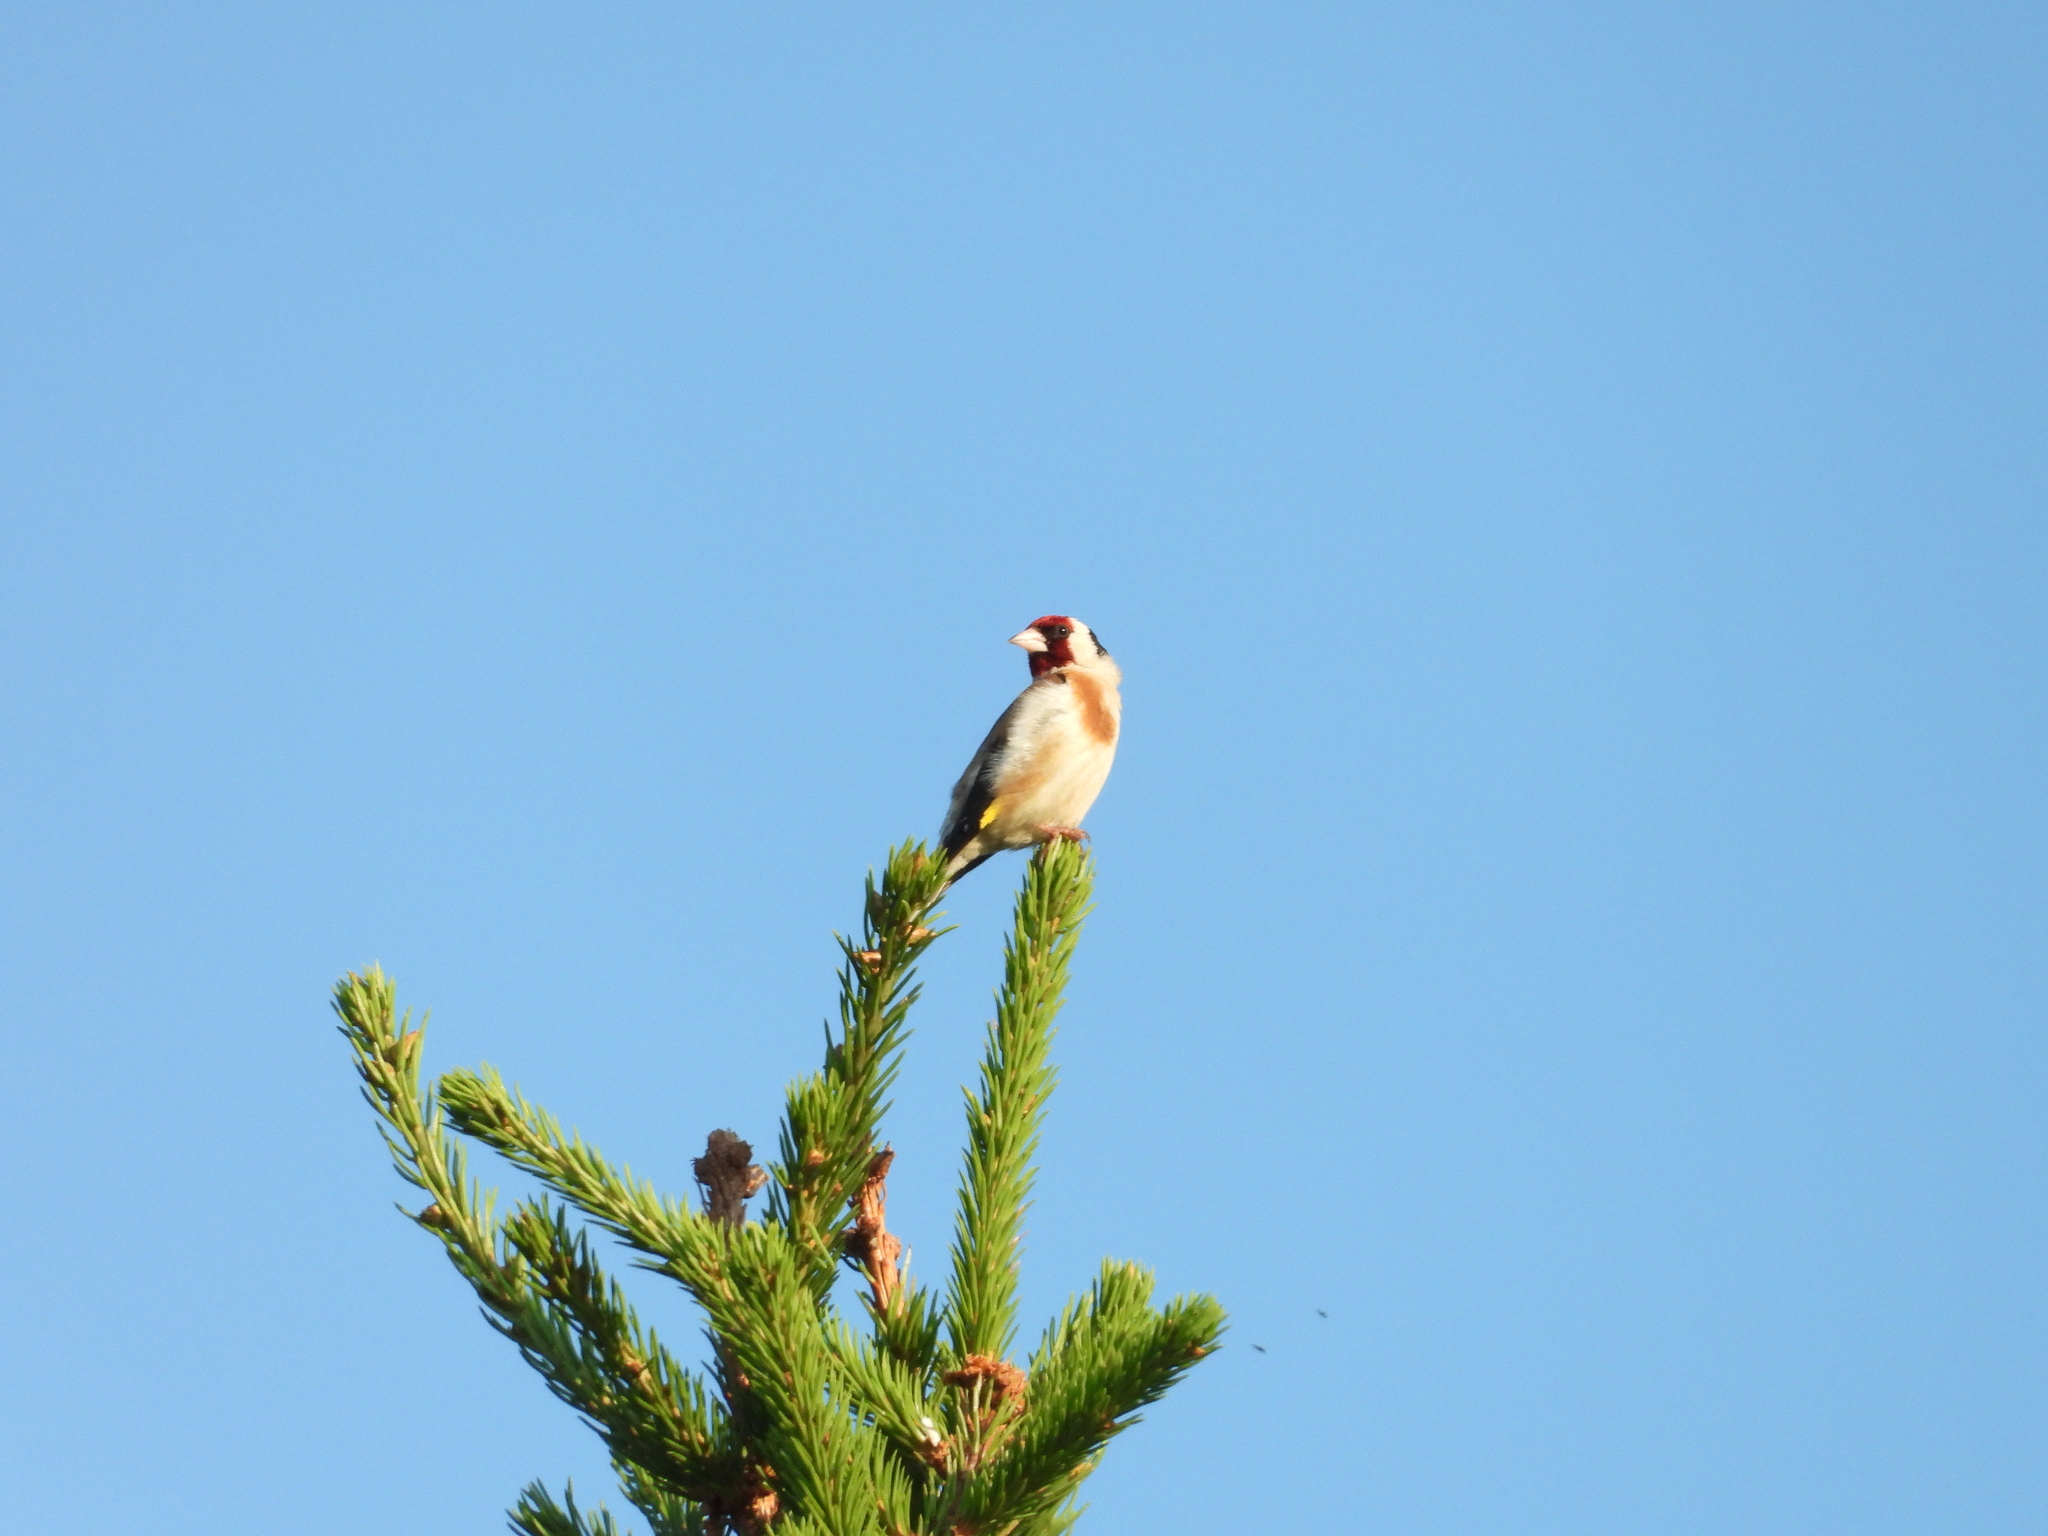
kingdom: Animalia
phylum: Chordata
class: Aves
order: Passeriformes
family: Fringillidae
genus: Carduelis
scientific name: Carduelis carduelis
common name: European goldfinch
